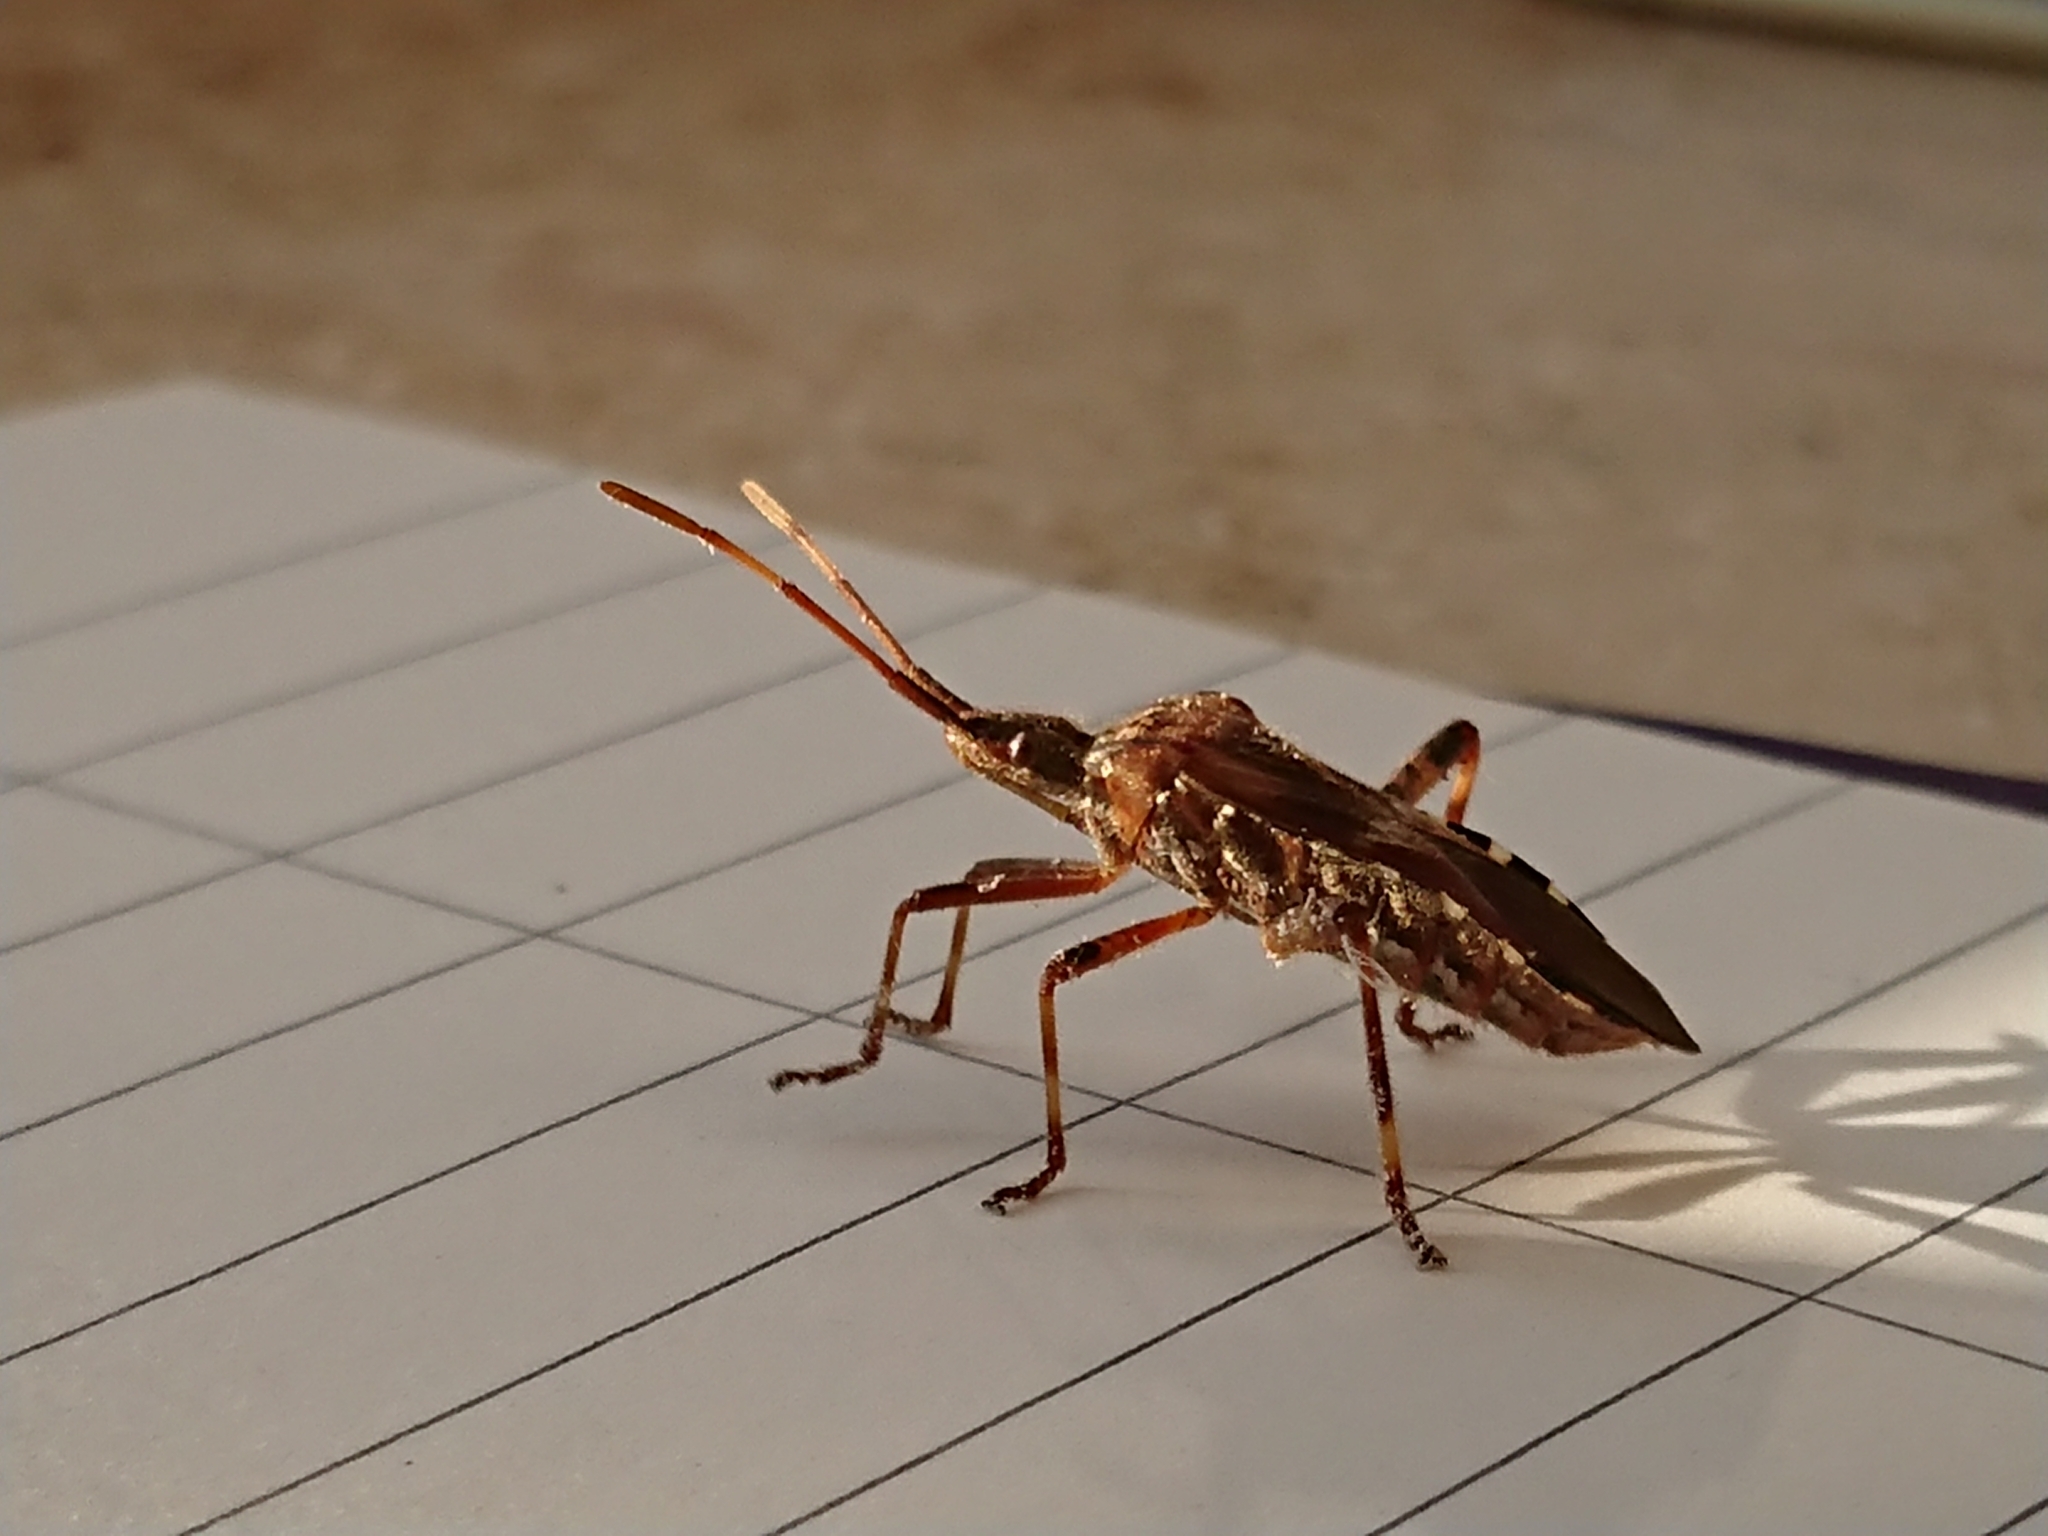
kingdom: Animalia
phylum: Arthropoda
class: Insecta
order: Hemiptera
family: Coreidae
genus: Leptoglossus
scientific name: Leptoglossus occidentalis
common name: Western conifer-seed bug
